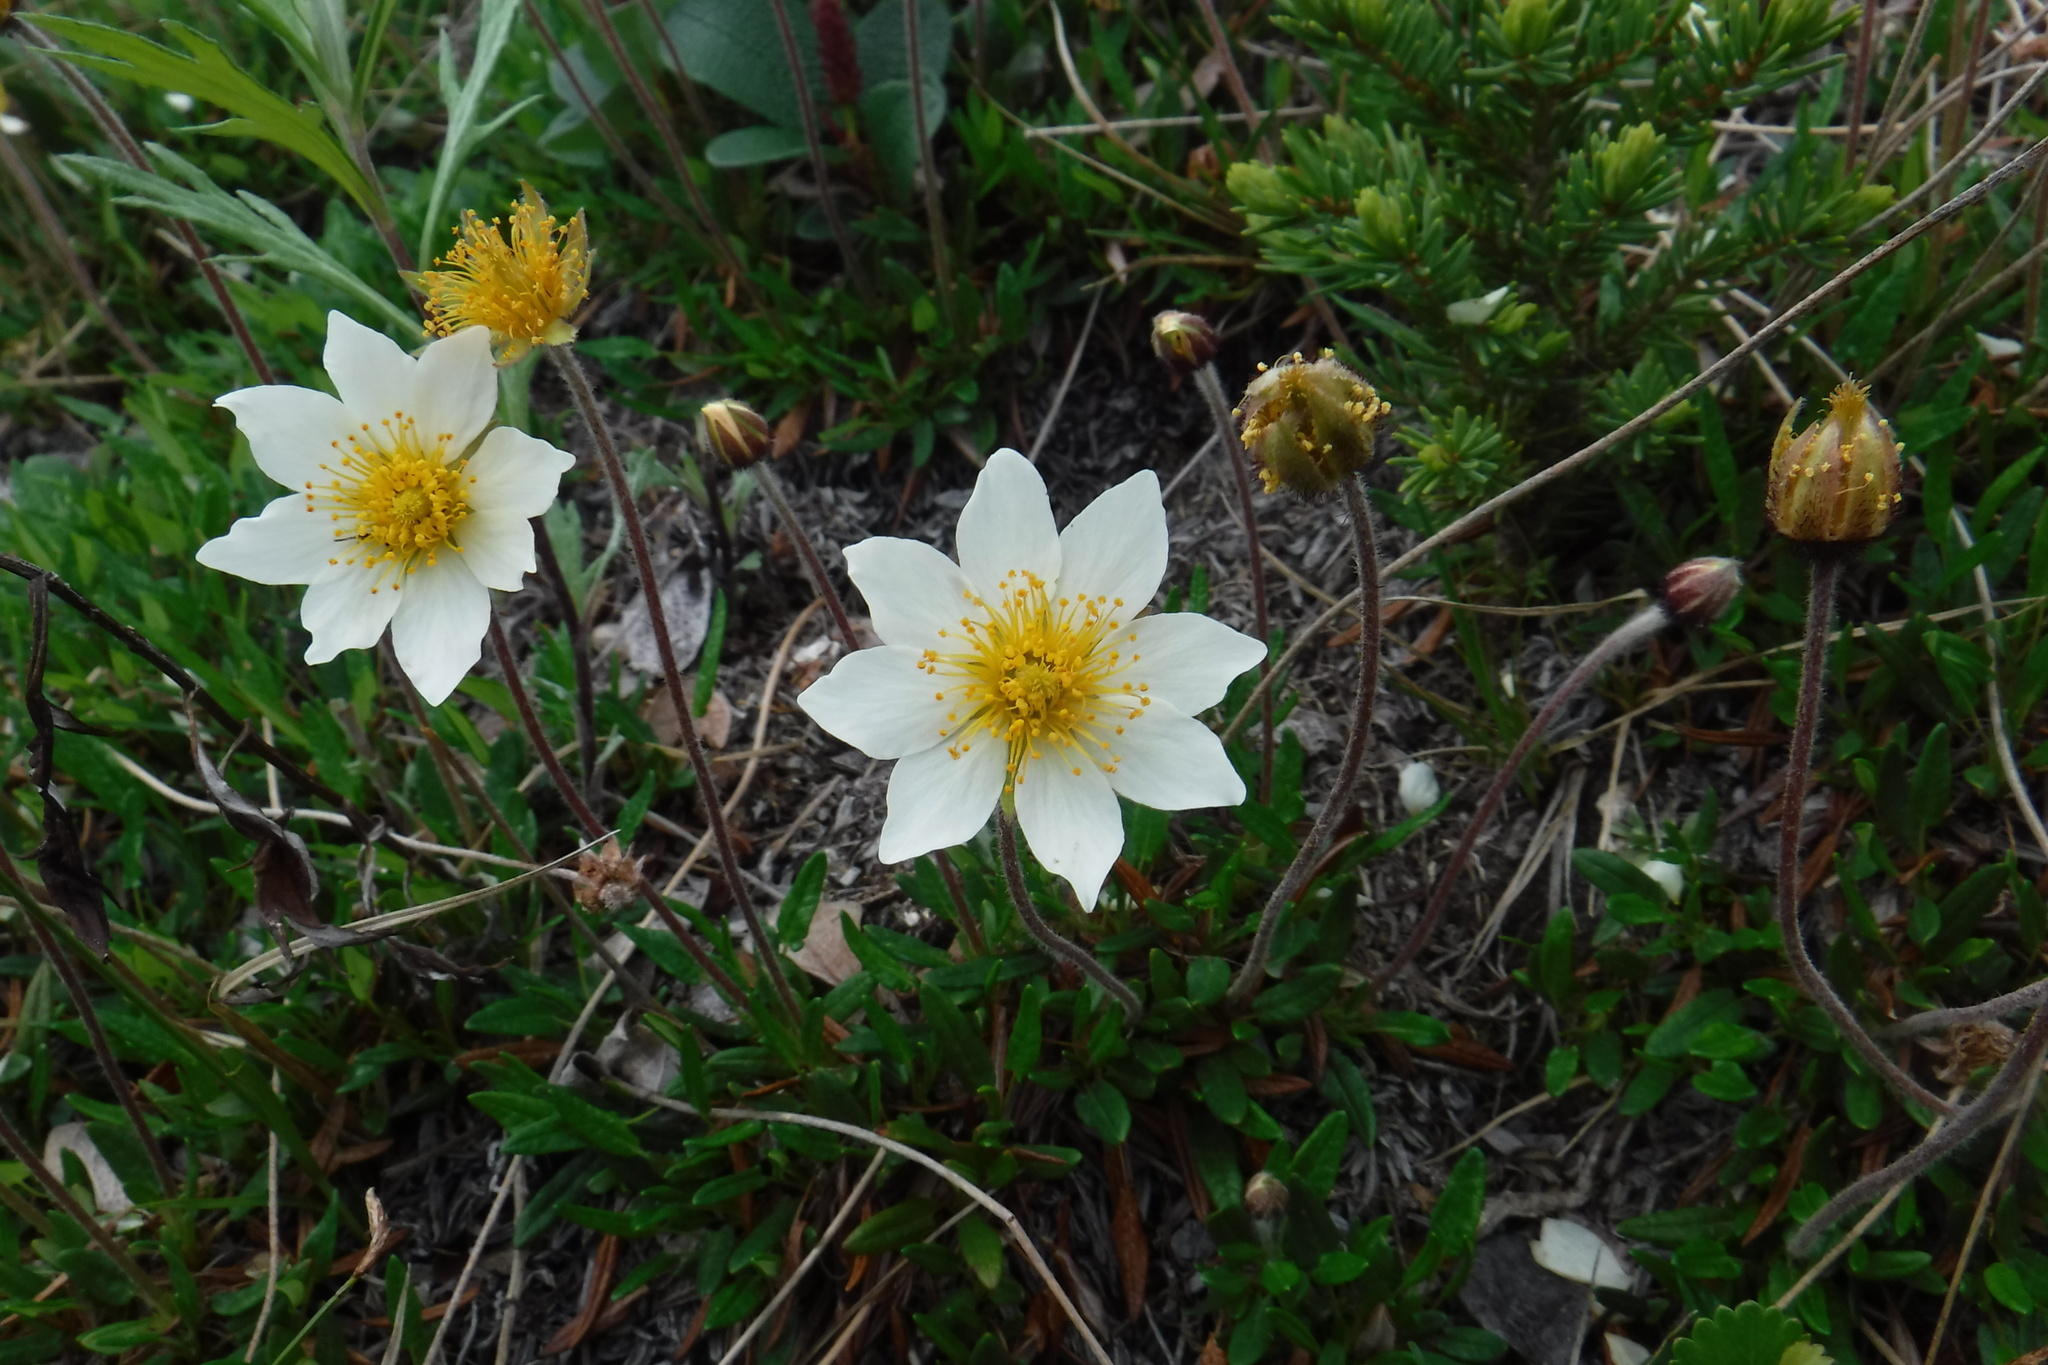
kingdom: Plantae
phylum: Tracheophyta
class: Magnoliopsida
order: Rosales
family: Rosaceae
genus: Dryas
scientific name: Dryas integrifolia
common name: Entire-leaved mountain avens
